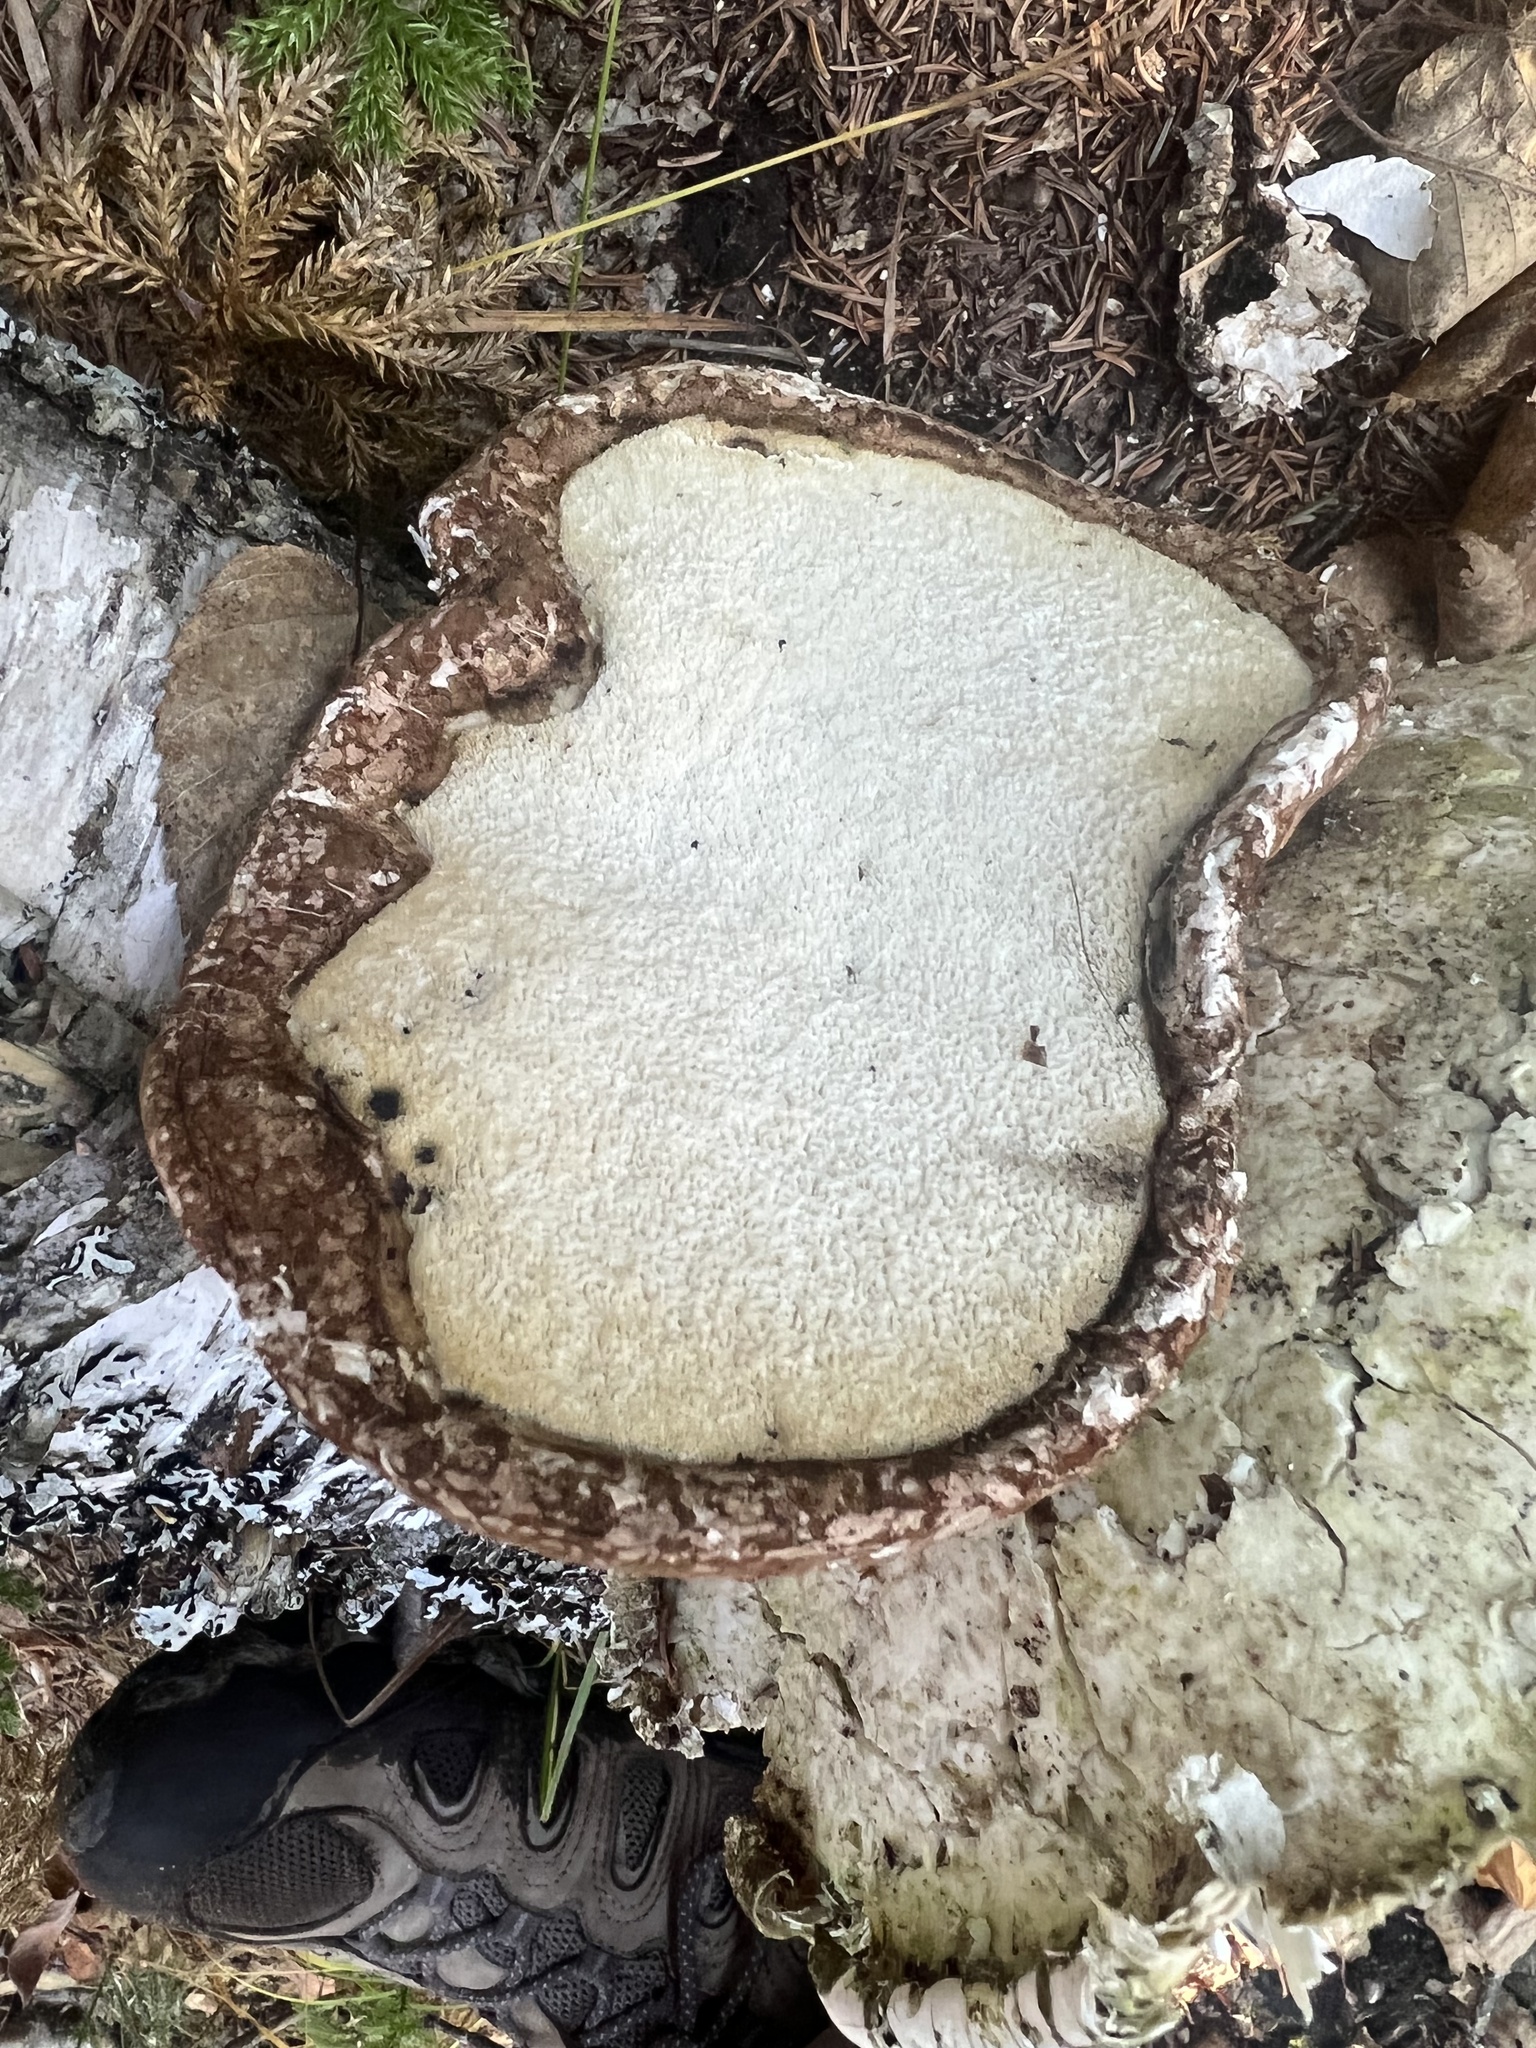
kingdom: Fungi
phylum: Basidiomycota
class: Agaricomycetes
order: Polyporales
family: Fomitopsidaceae
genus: Fomitopsis
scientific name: Fomitopsis betulina
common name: Birch polypore
